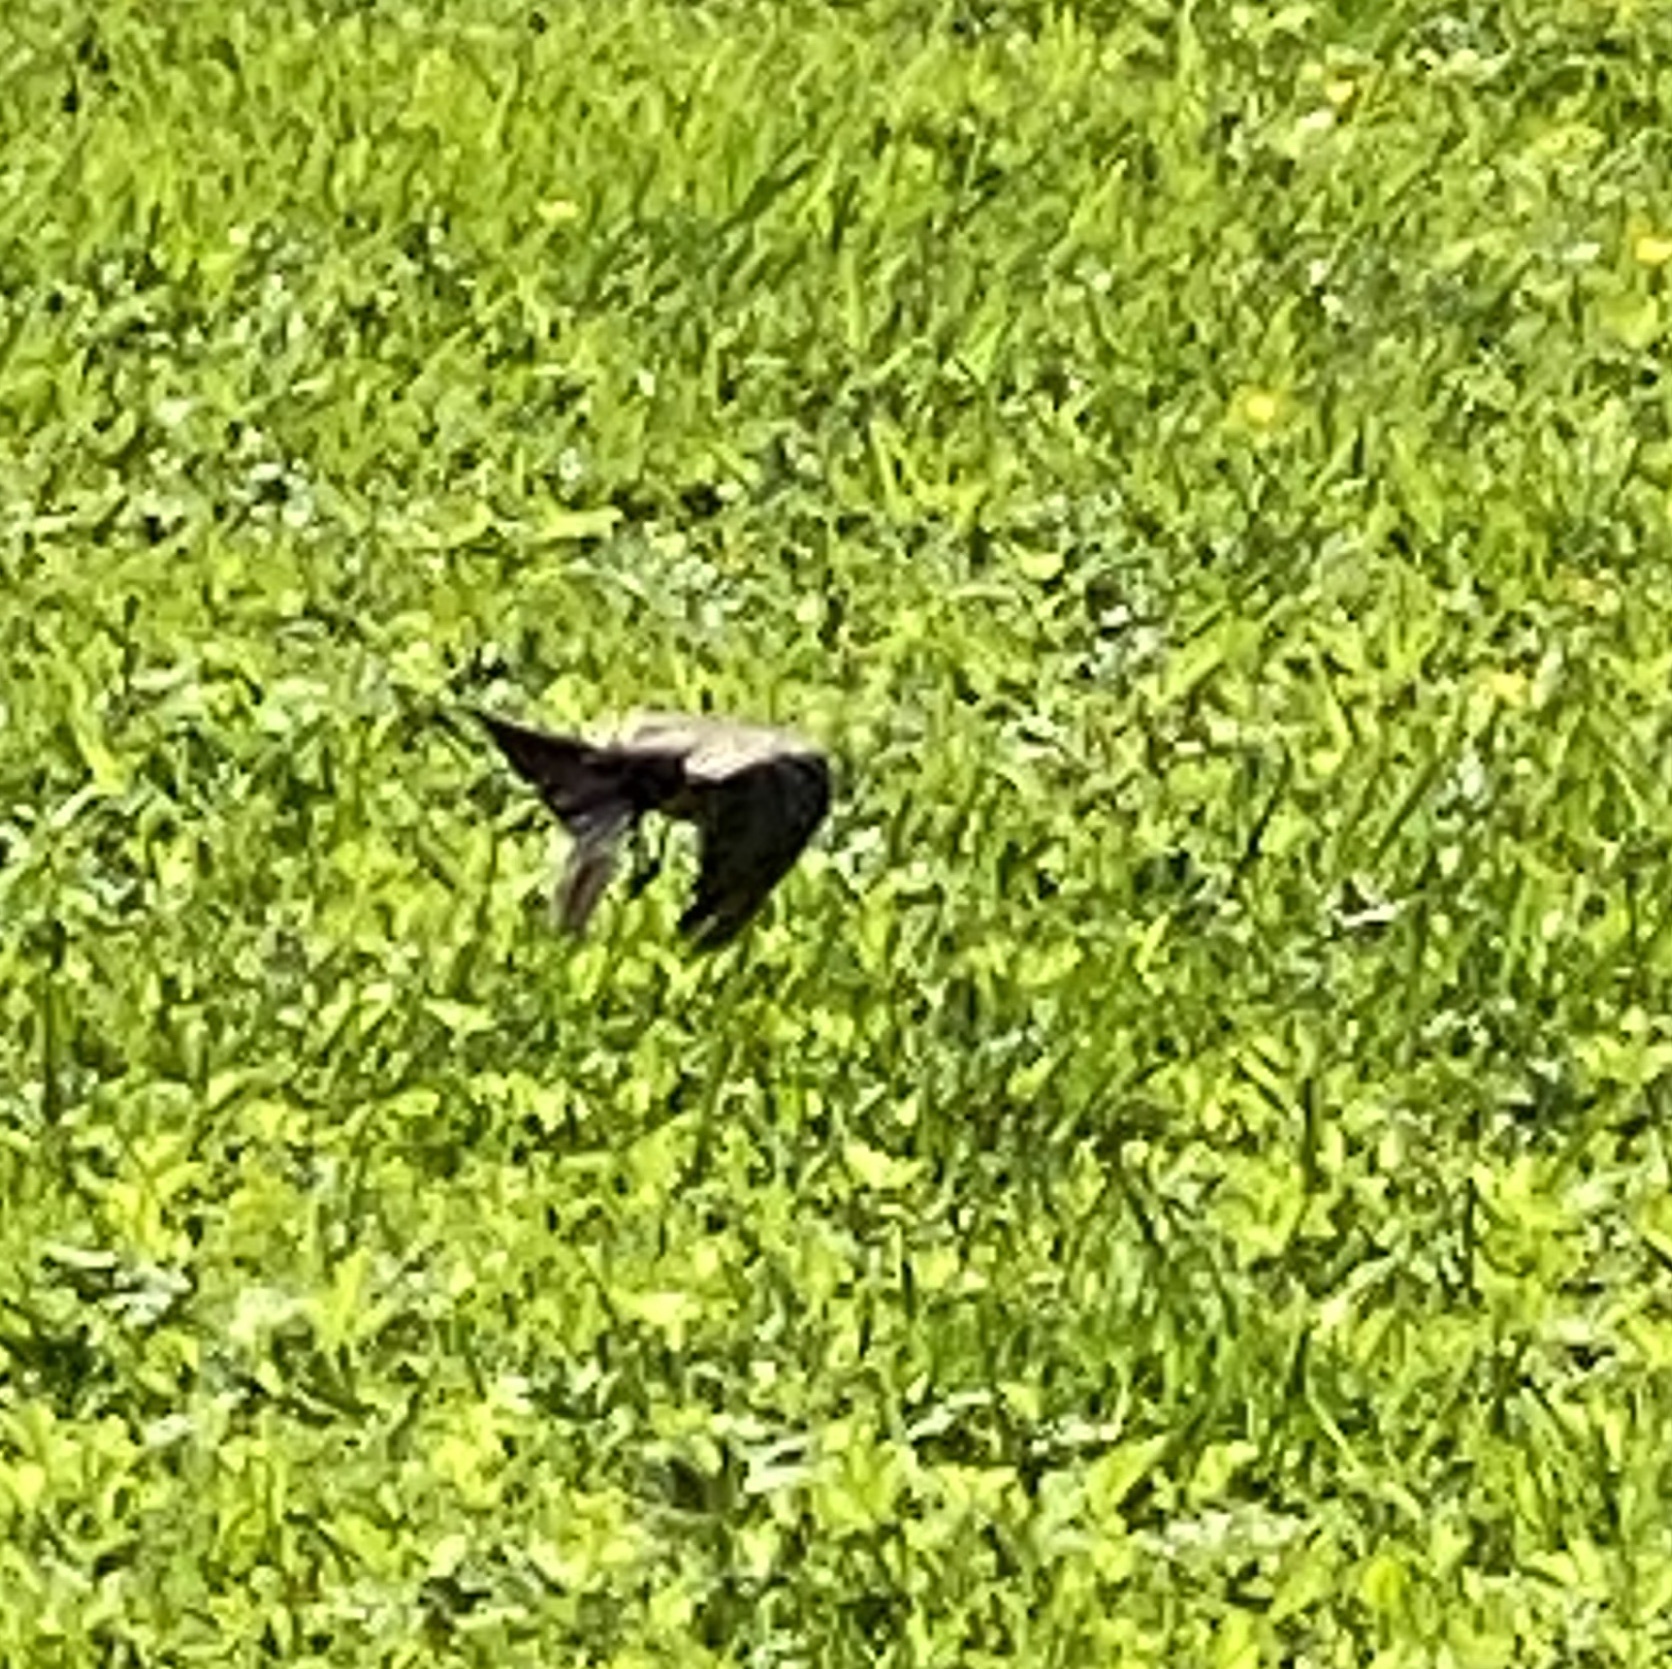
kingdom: Animalia
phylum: Chordata
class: Aves
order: Passeriformes
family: Tyrannidae
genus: Sayornis
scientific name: Sayornis saya
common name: Say's phoebe
